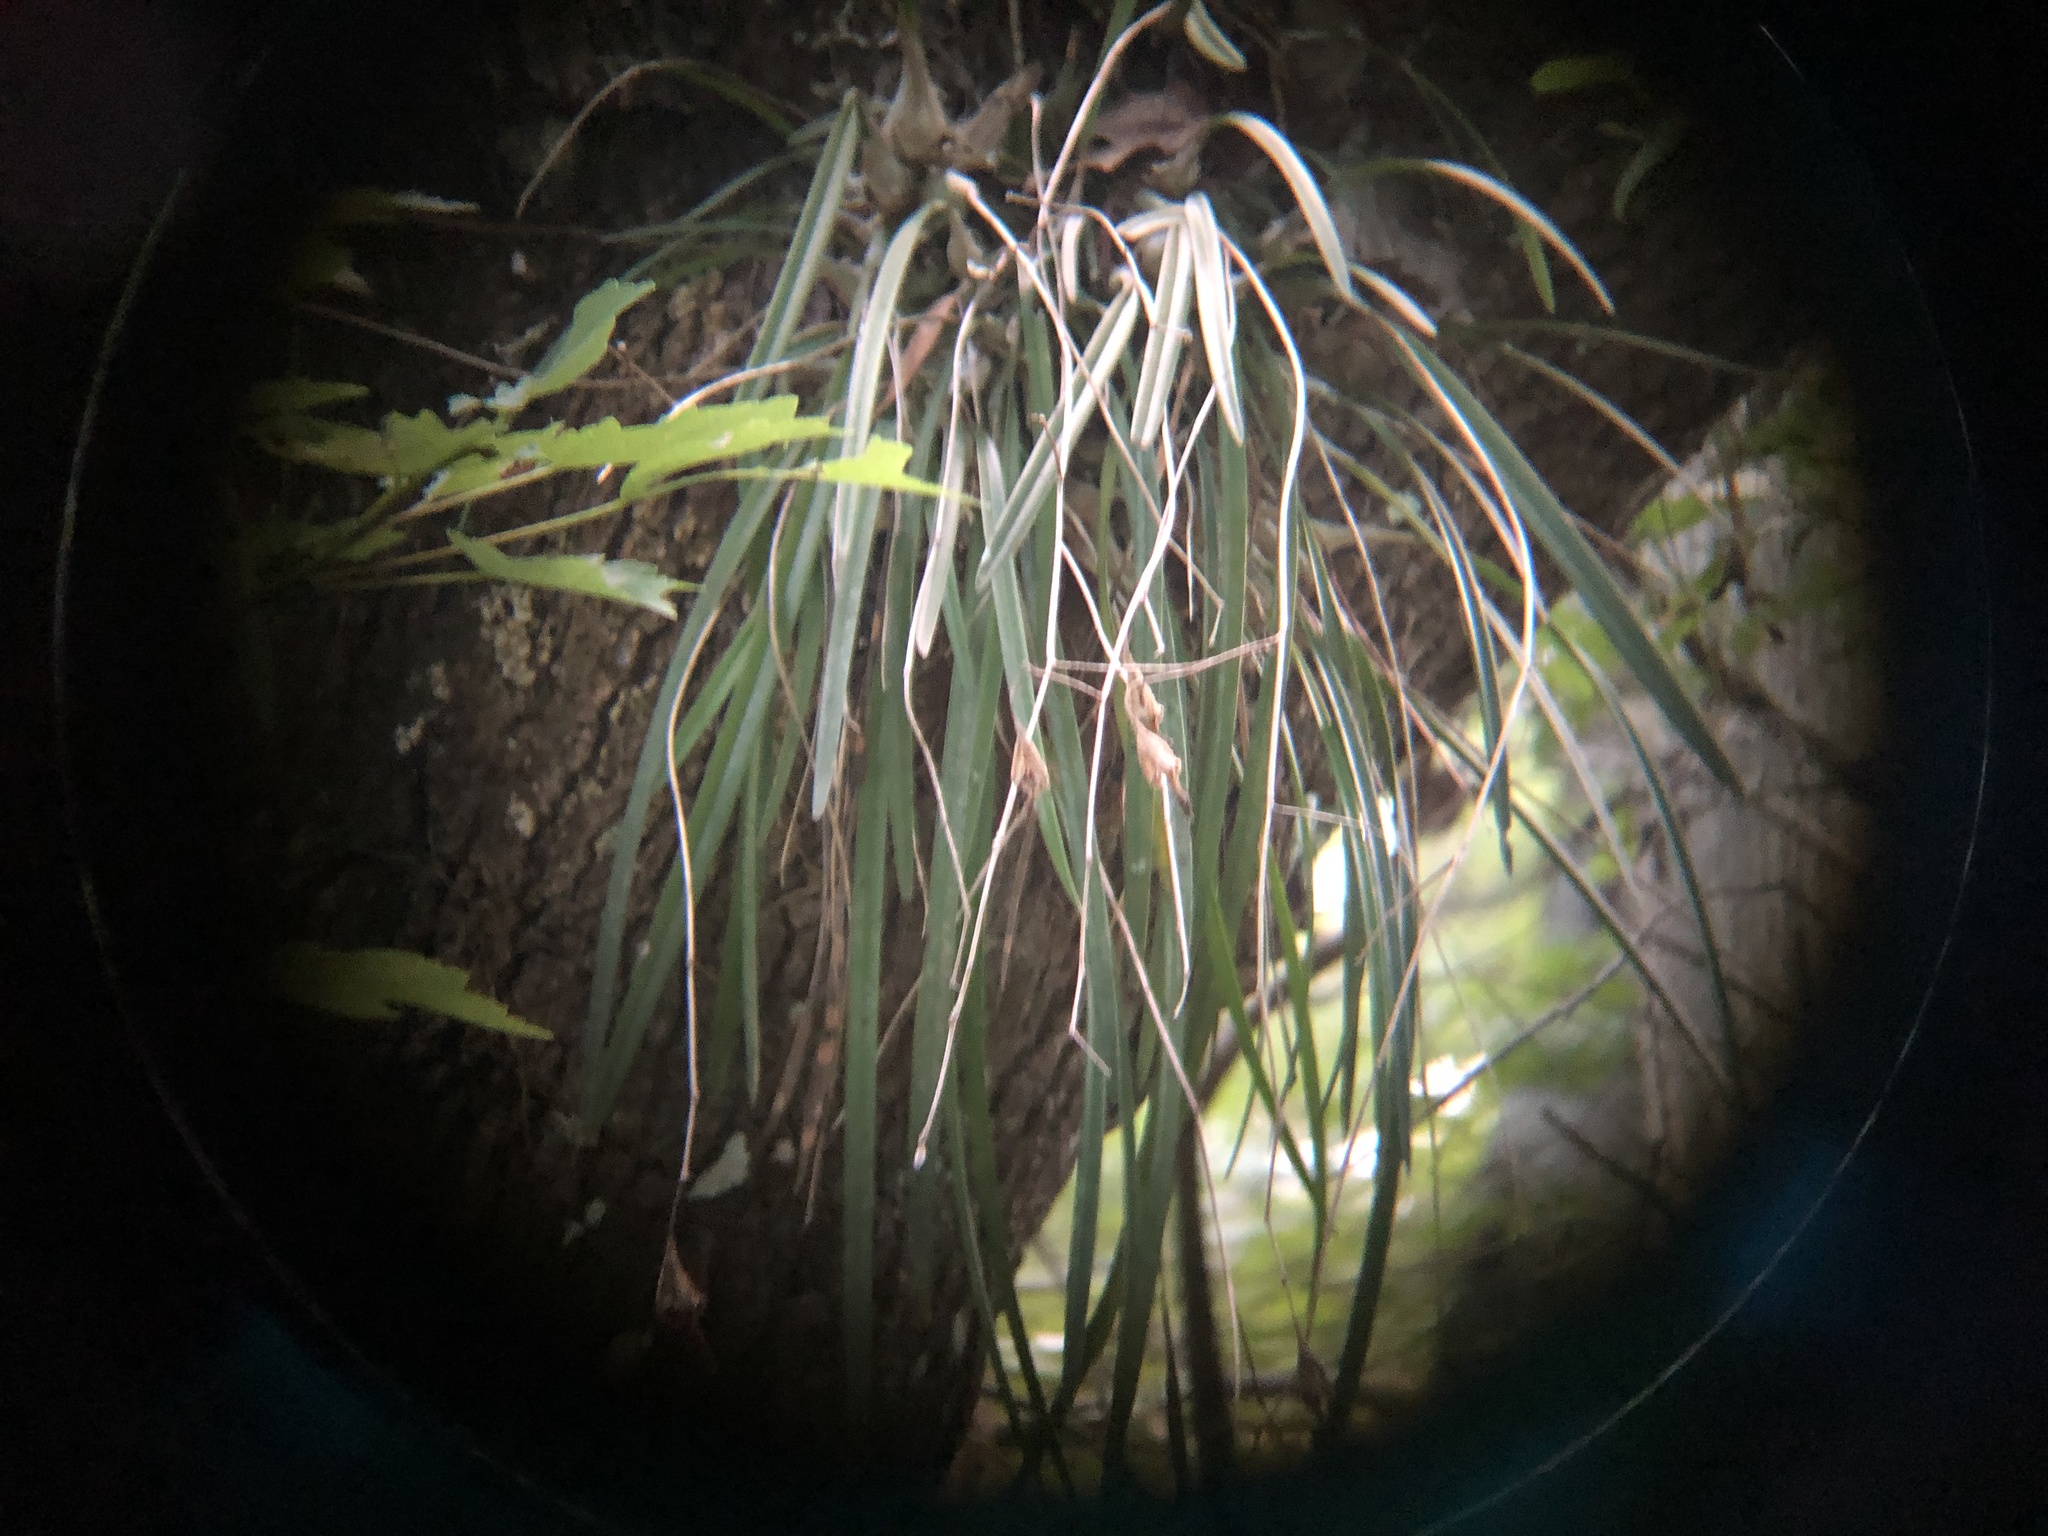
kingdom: Plantae
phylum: Tracheophyta
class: Liliopsida
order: Asparagales
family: Orchidaceae
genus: Encyclia
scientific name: Encyclia tampensis
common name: Florida butterfly orchid
